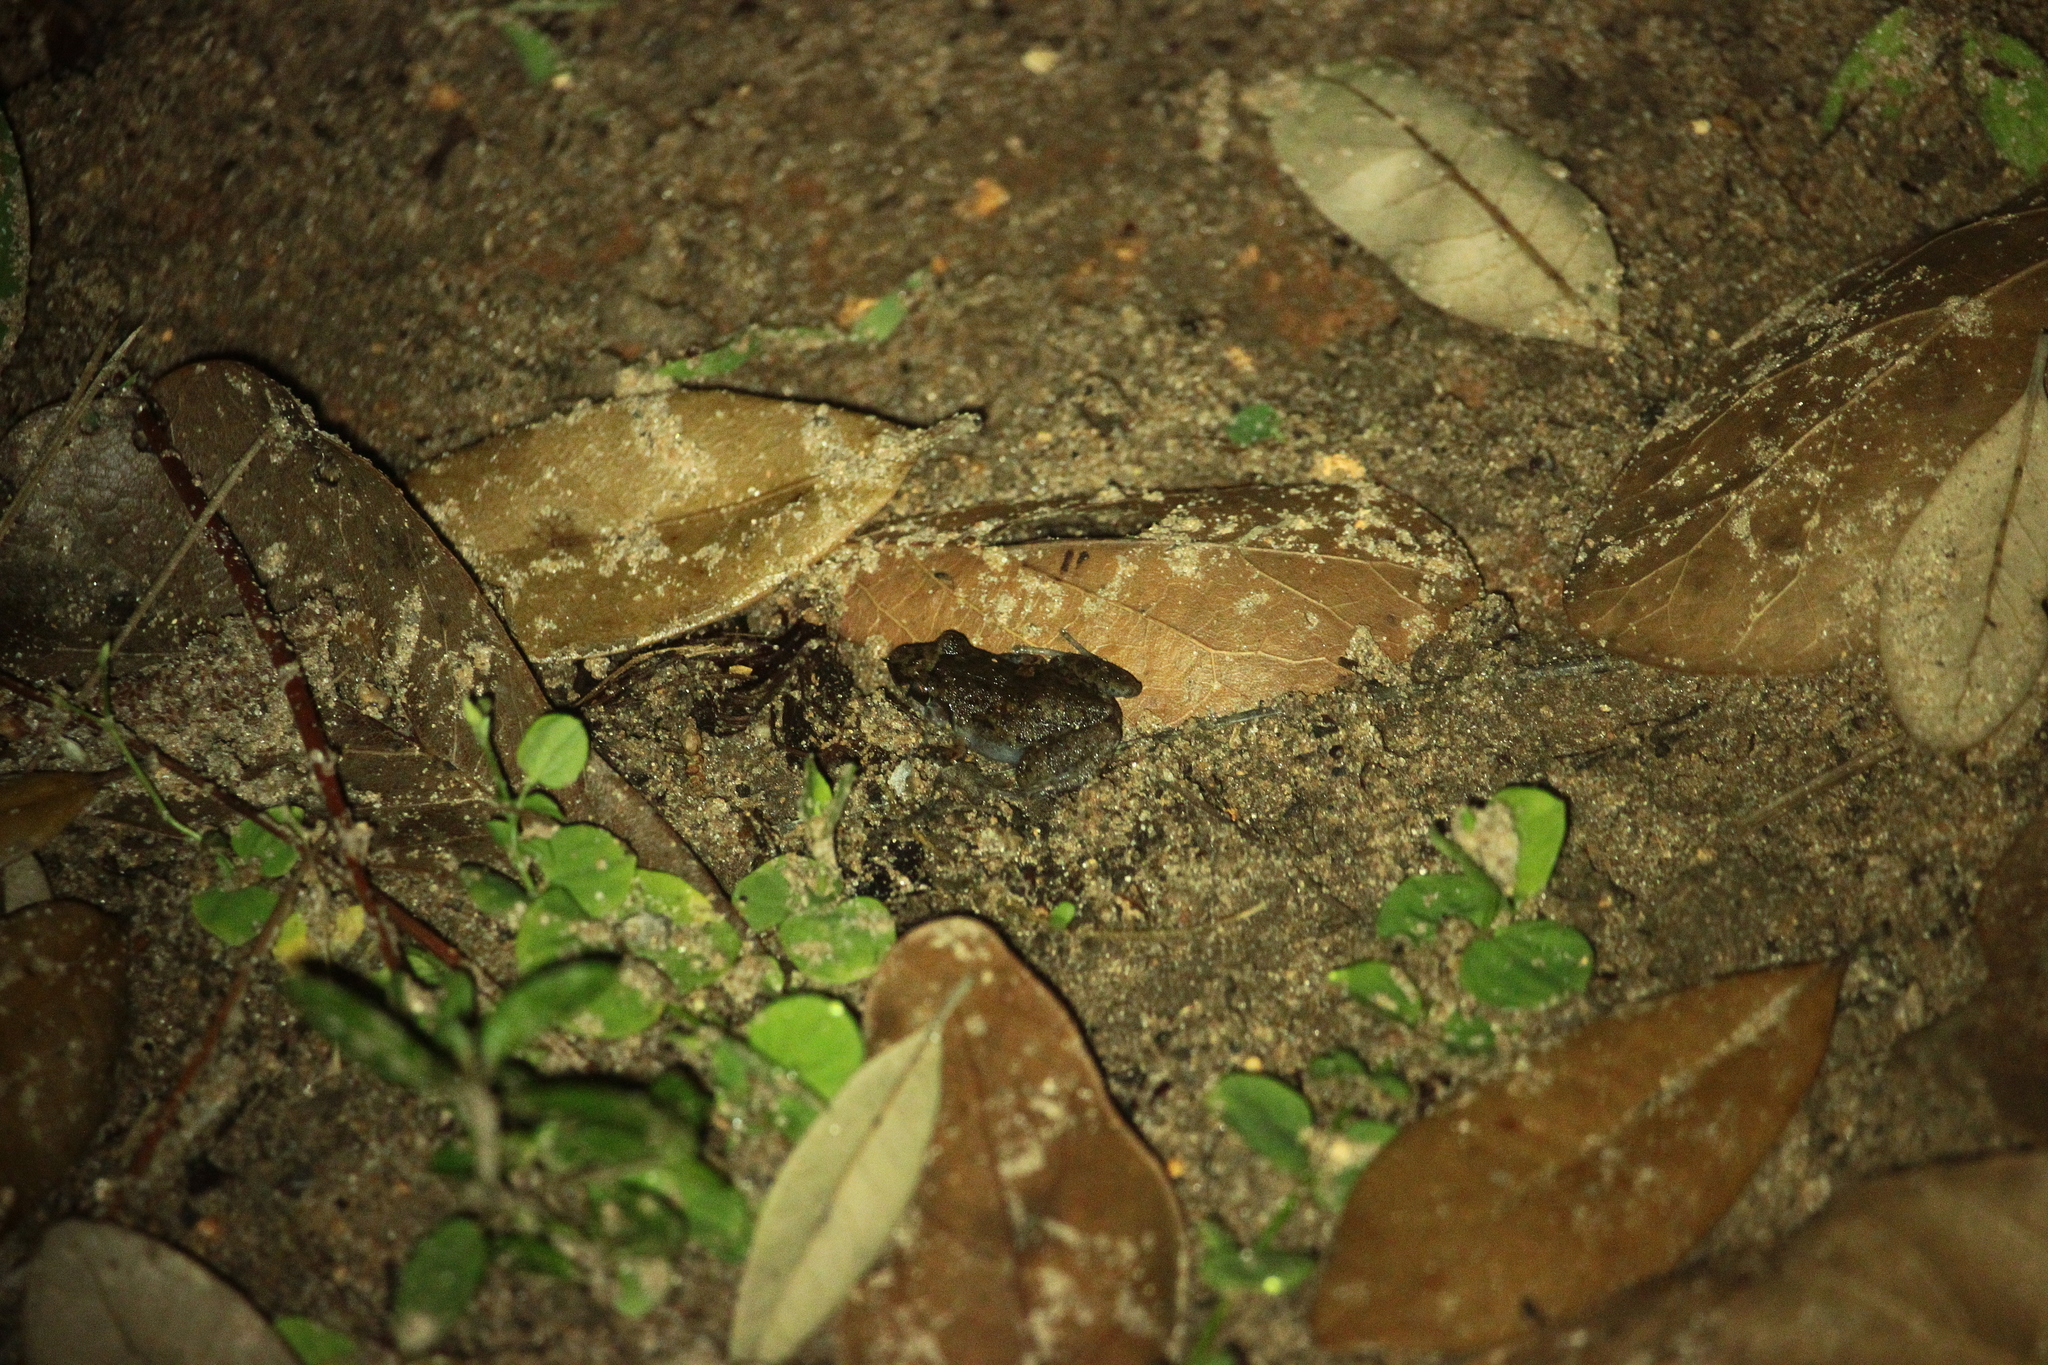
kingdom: Animalia
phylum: Chordata
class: Amphibia
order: Anura
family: Eleutherodactylidae
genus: Eleutherodactylus
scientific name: Eleutherodactylus planirostris
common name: Greenhouse frog
